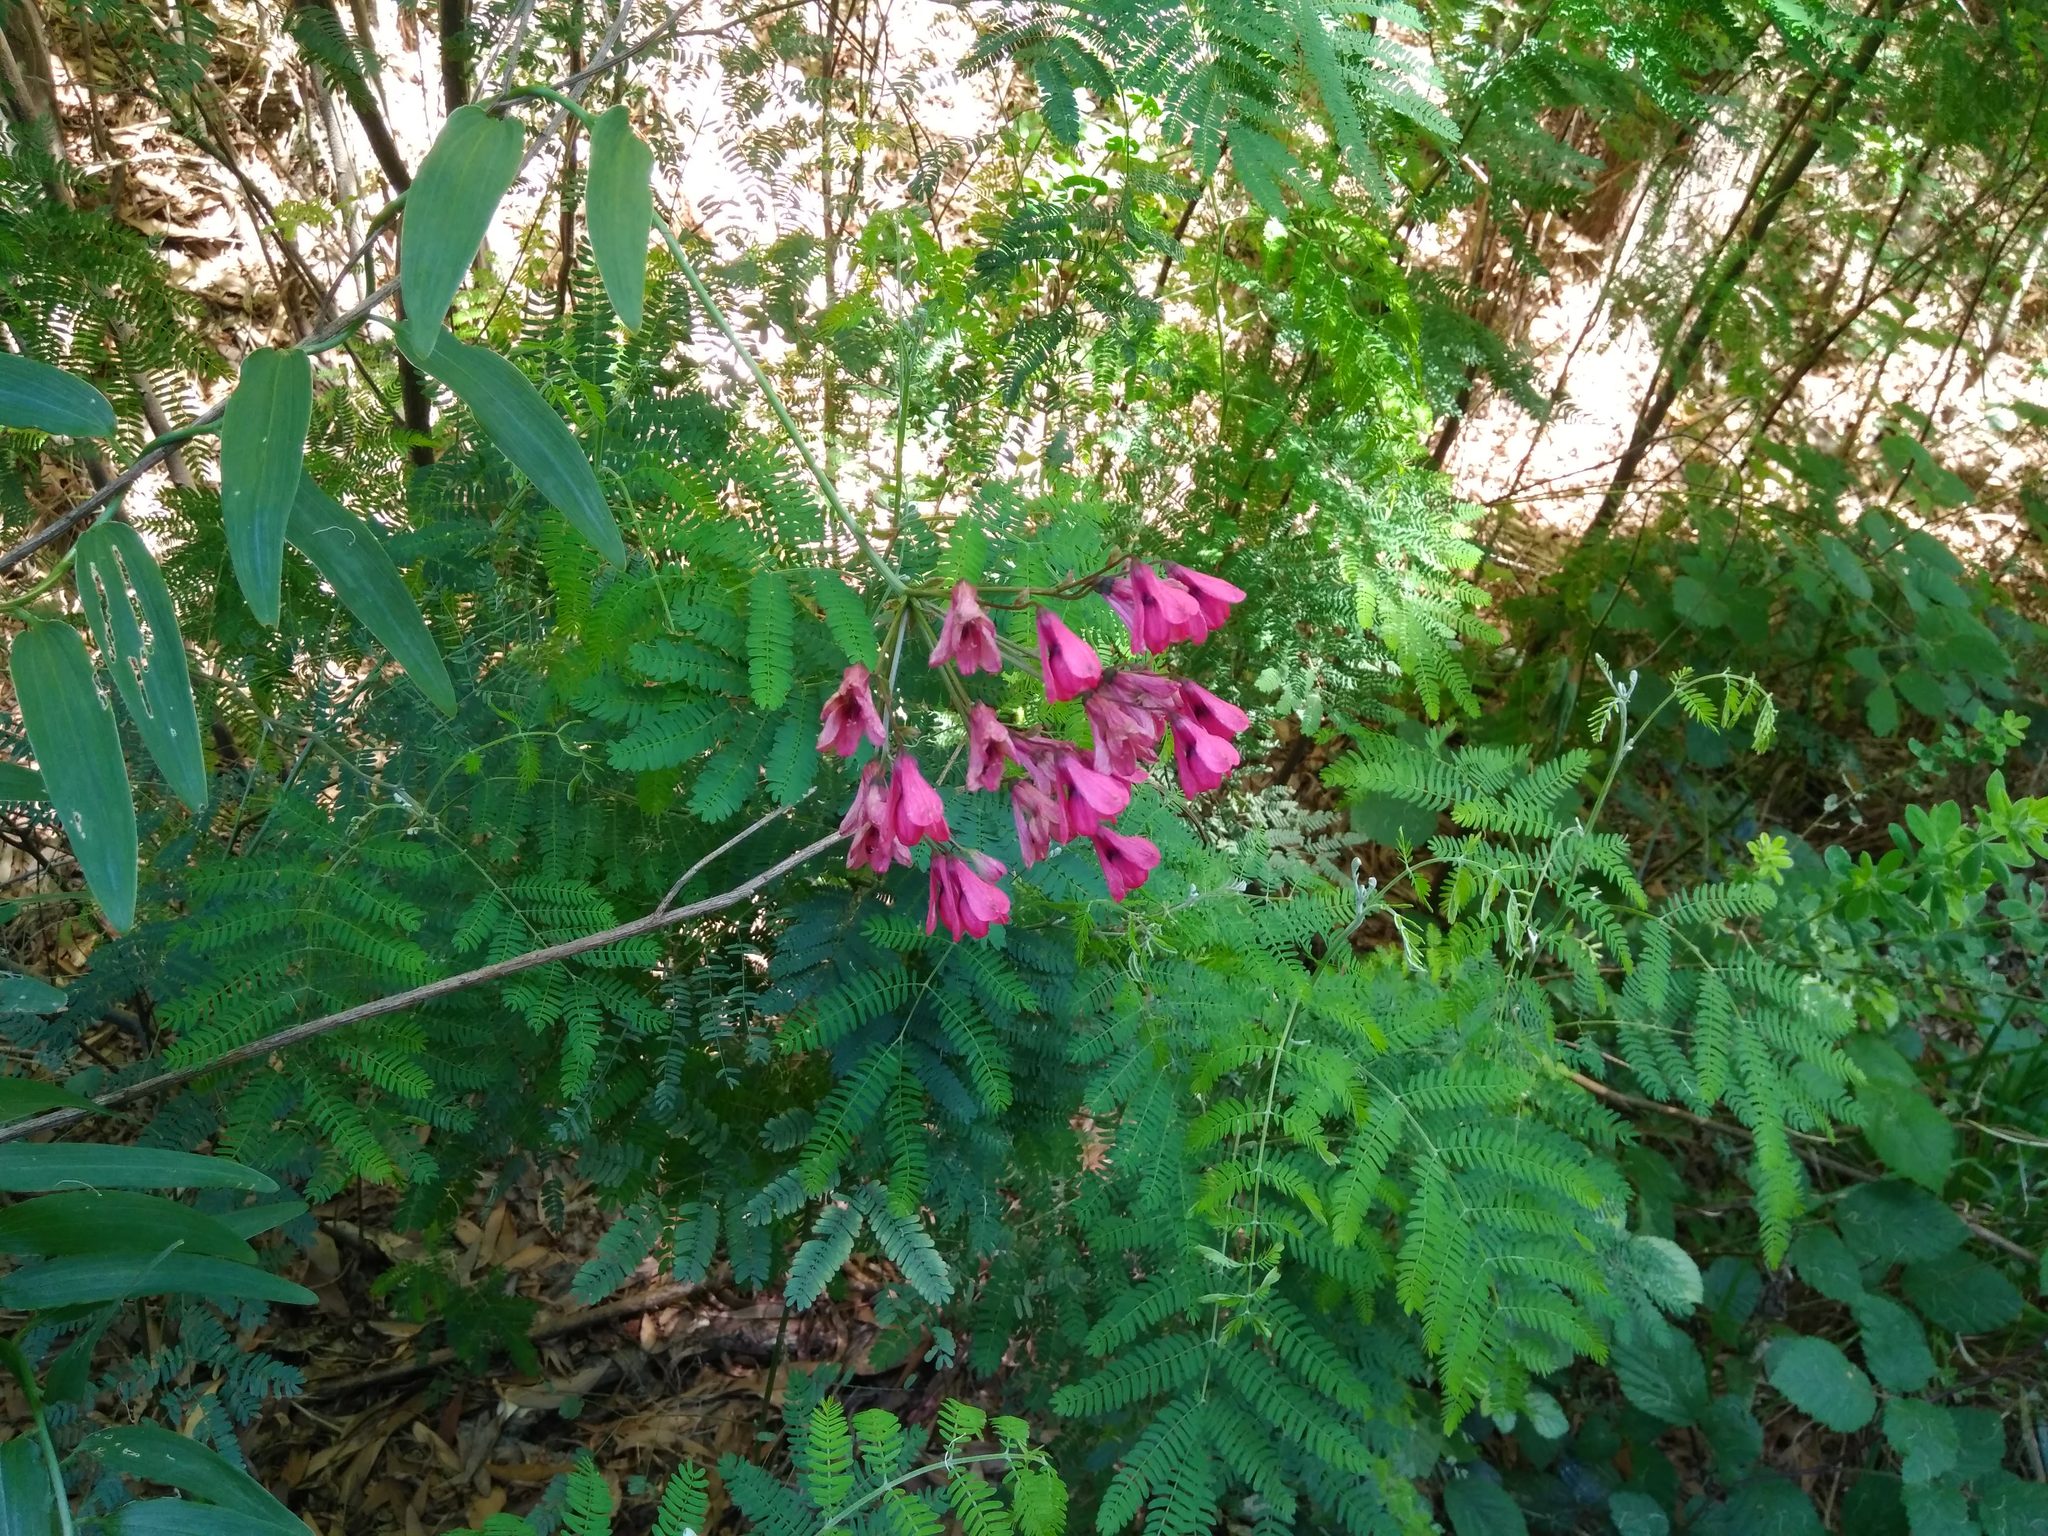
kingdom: Plantae
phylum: Tracheophyta
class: Liliopsida
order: Liliales
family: Alstroemeriaceae
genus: Bomarea
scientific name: Bomarea salsilla
